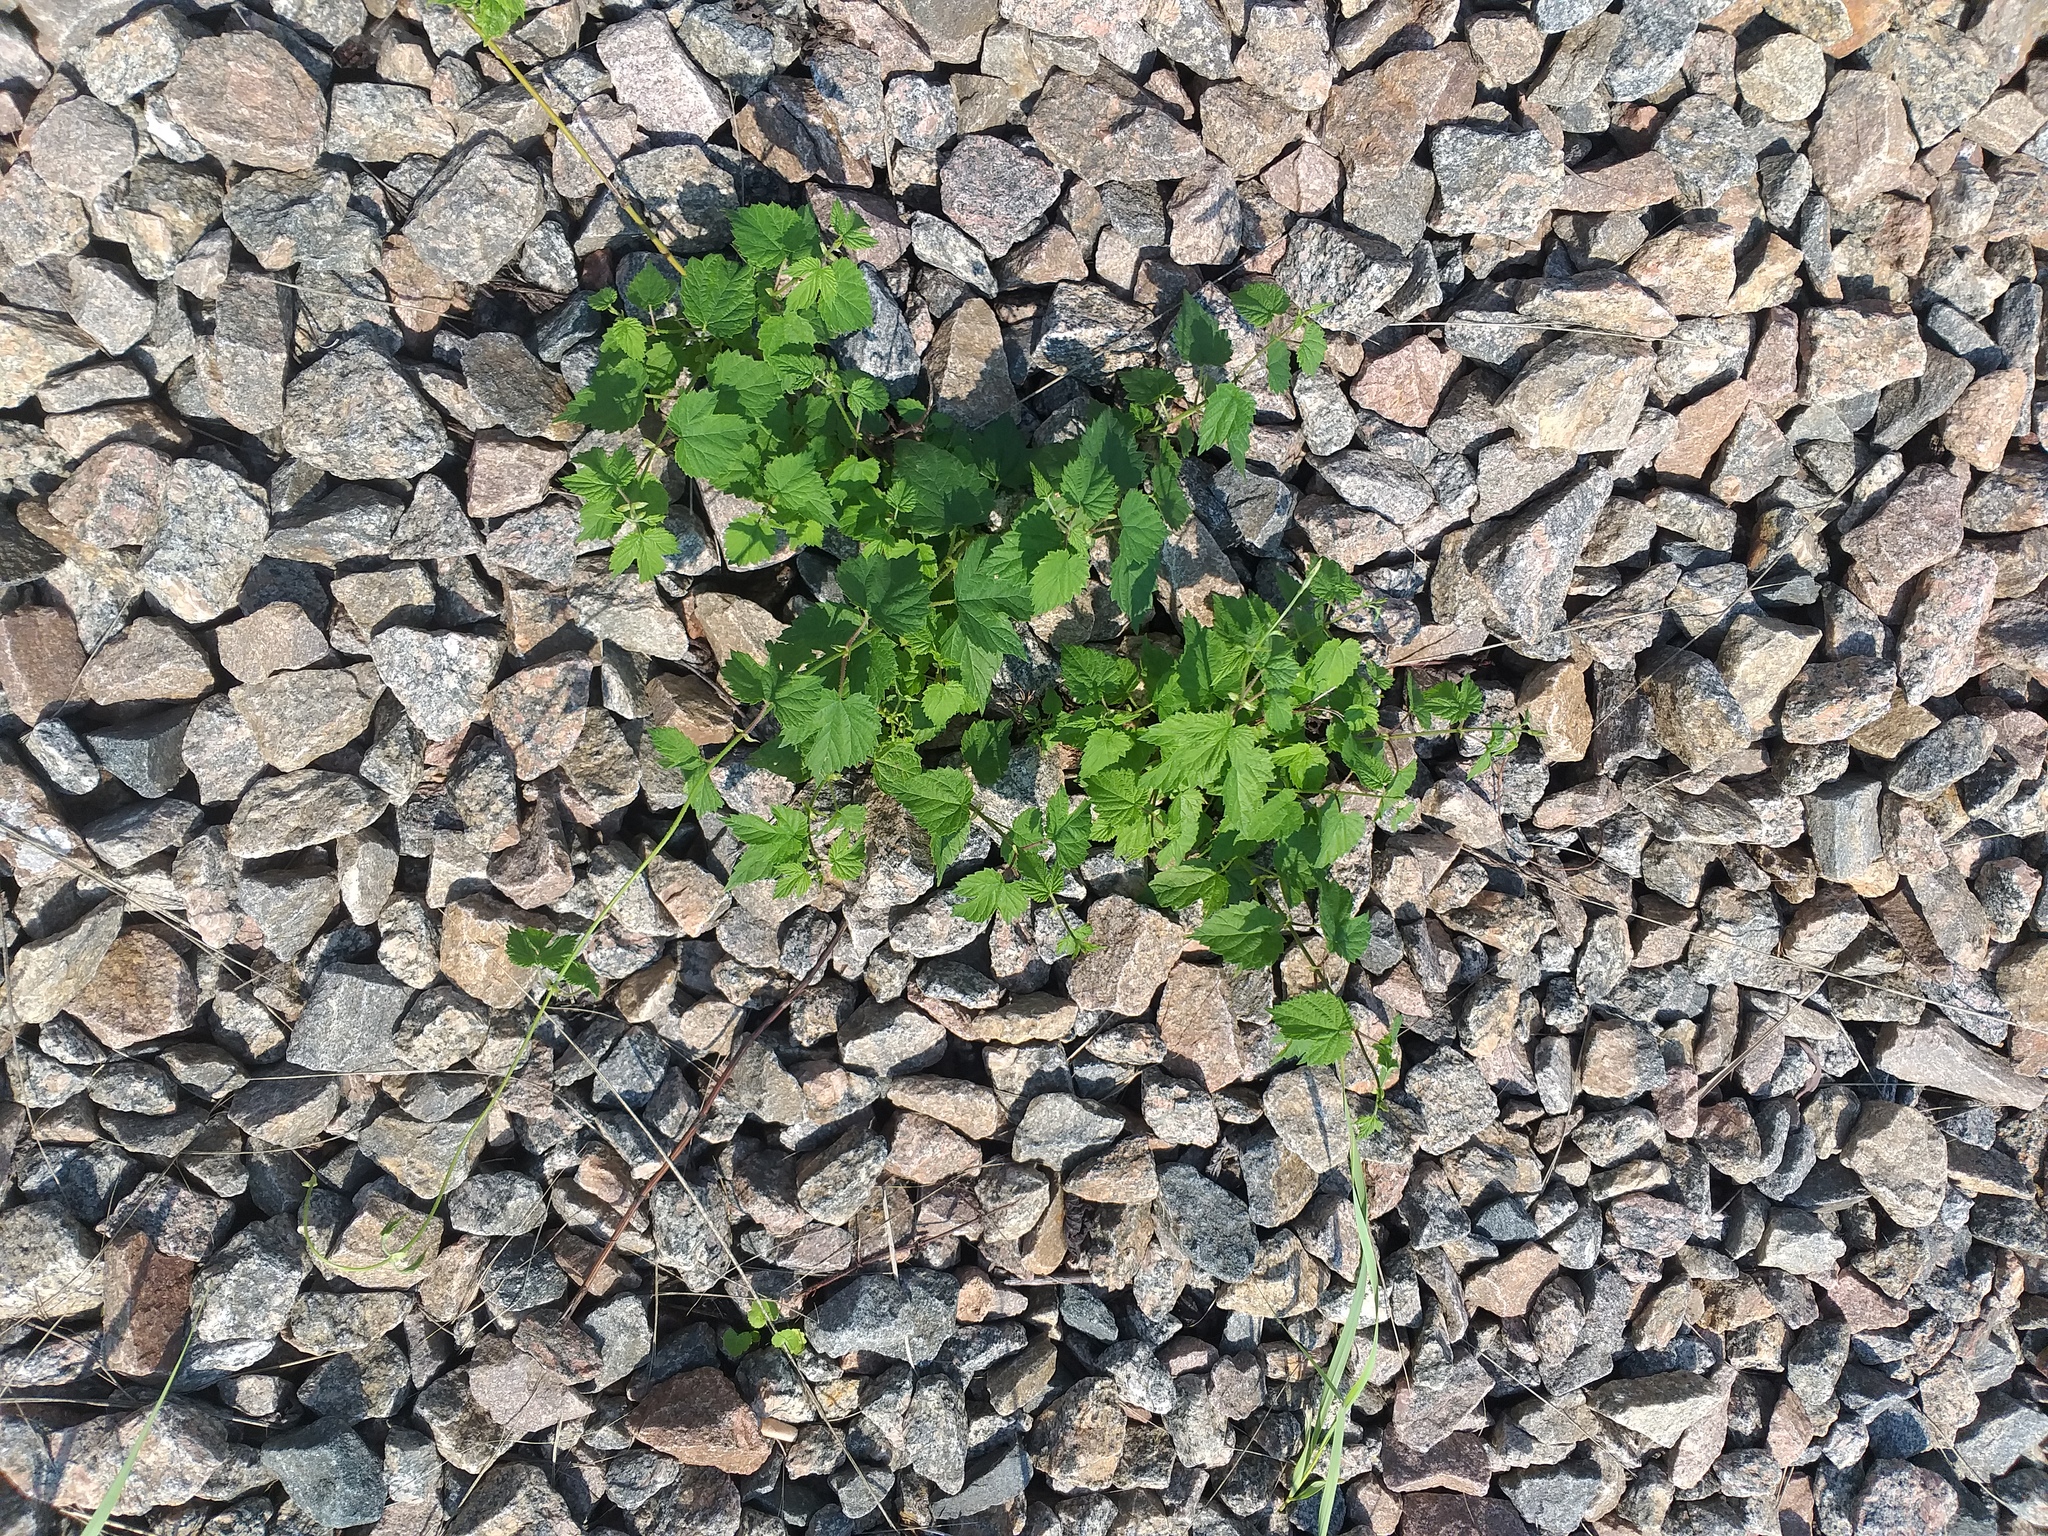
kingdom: Plantae
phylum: Tracheophyta
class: Magnoliopsida
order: Rosales
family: Cannabaceae
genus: Humulus
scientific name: Humulus lupulus
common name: Hop
